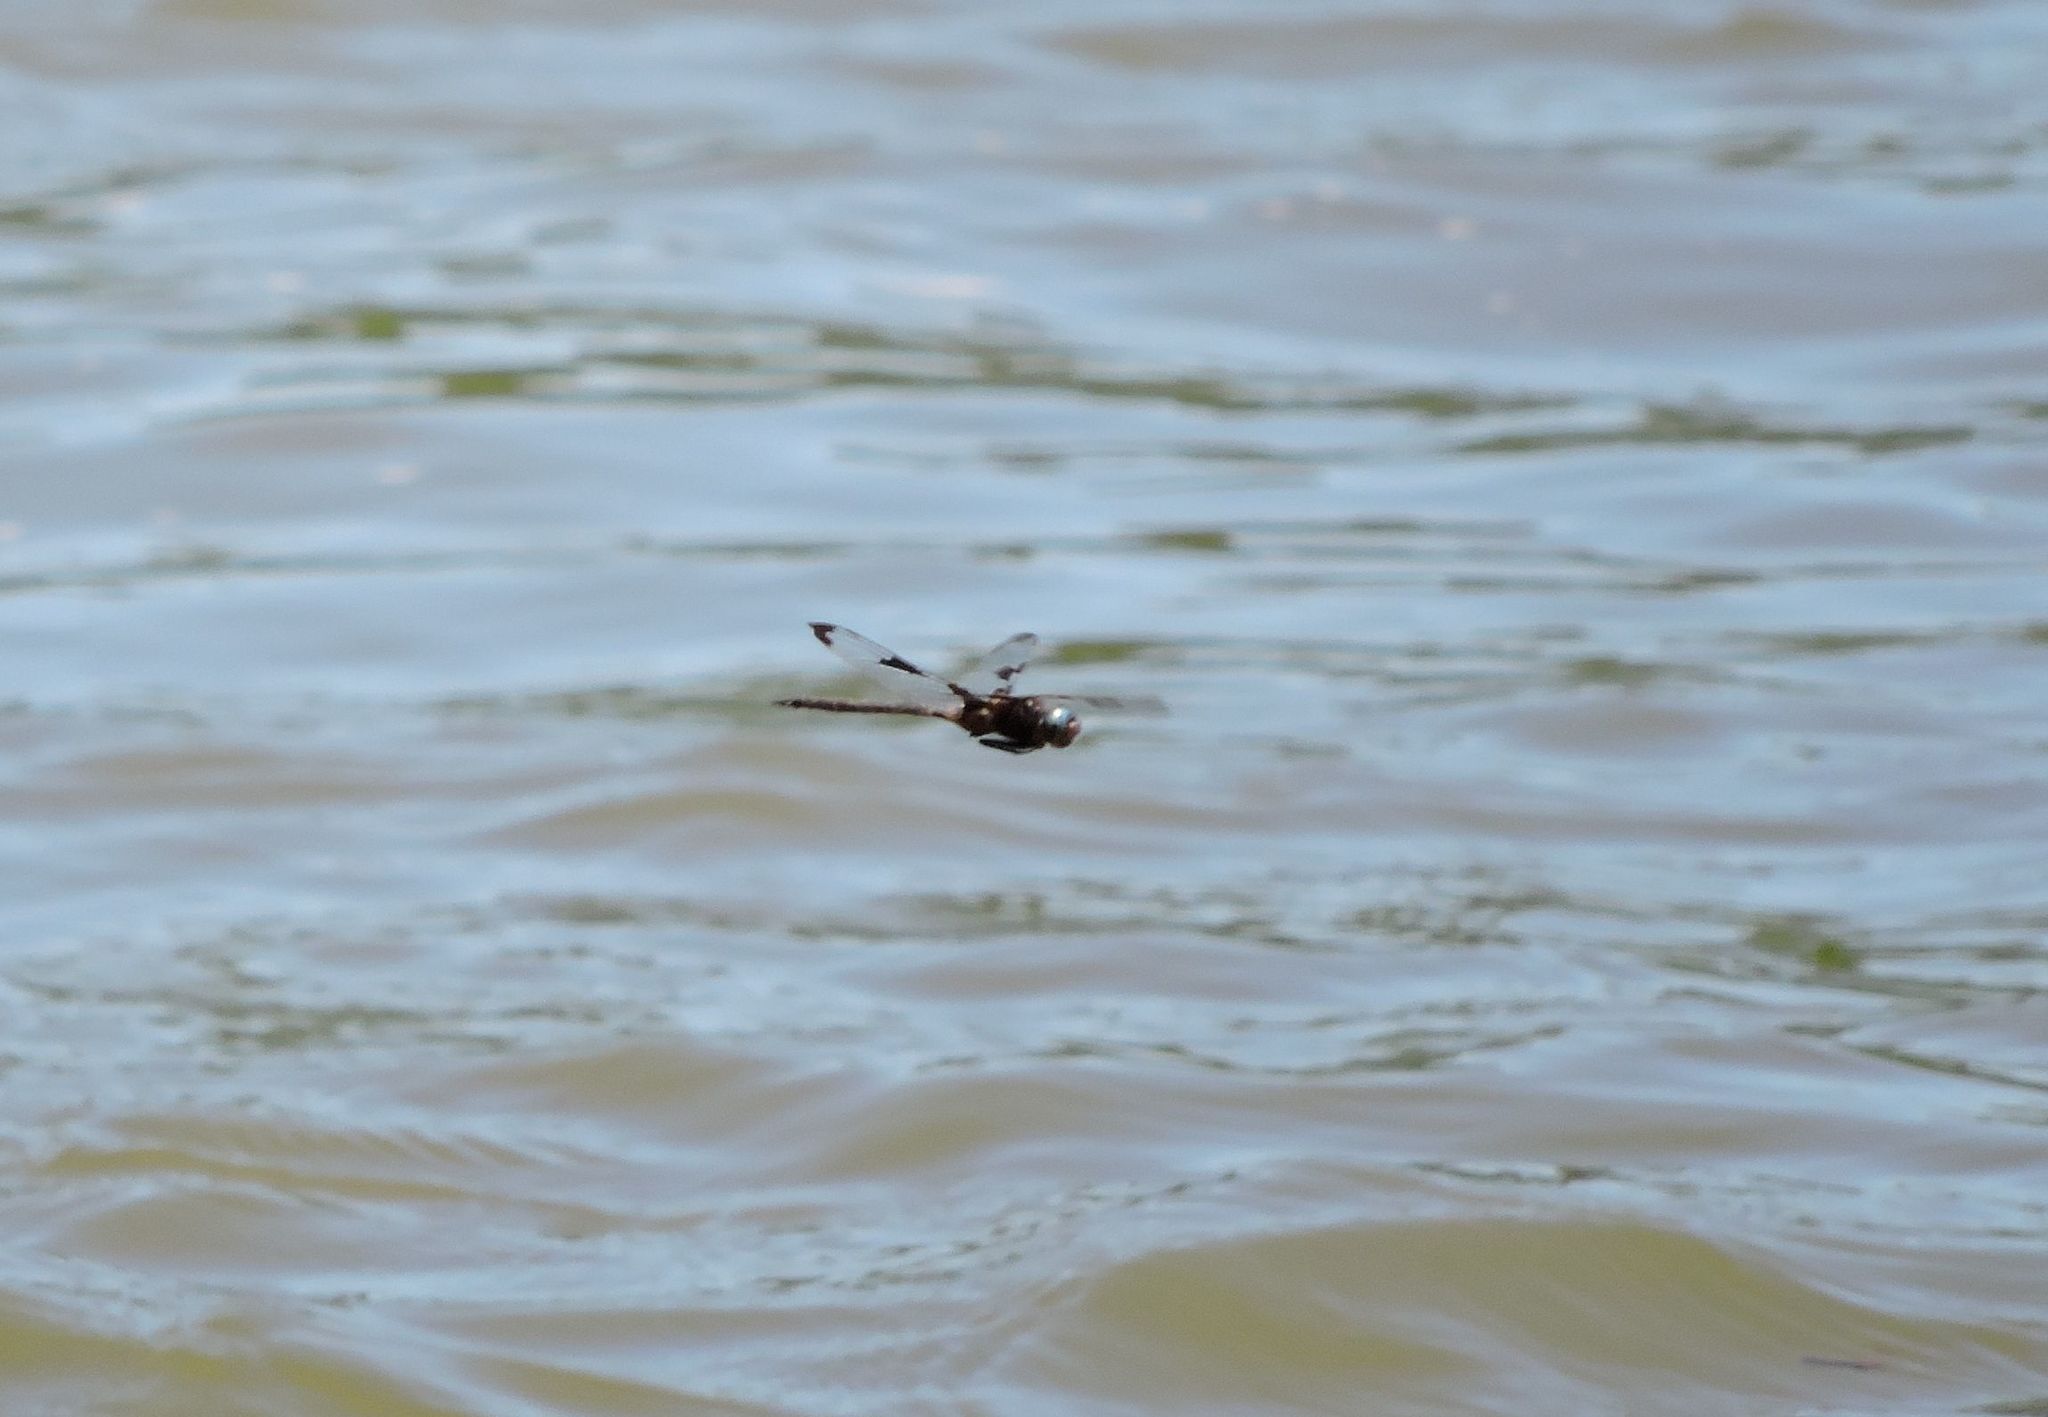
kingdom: Animalia
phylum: Arthropoda
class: Insecta
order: Odonata
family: Corduliidae
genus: Epitheca
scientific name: Epitheca princeps
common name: Prince baskettail
